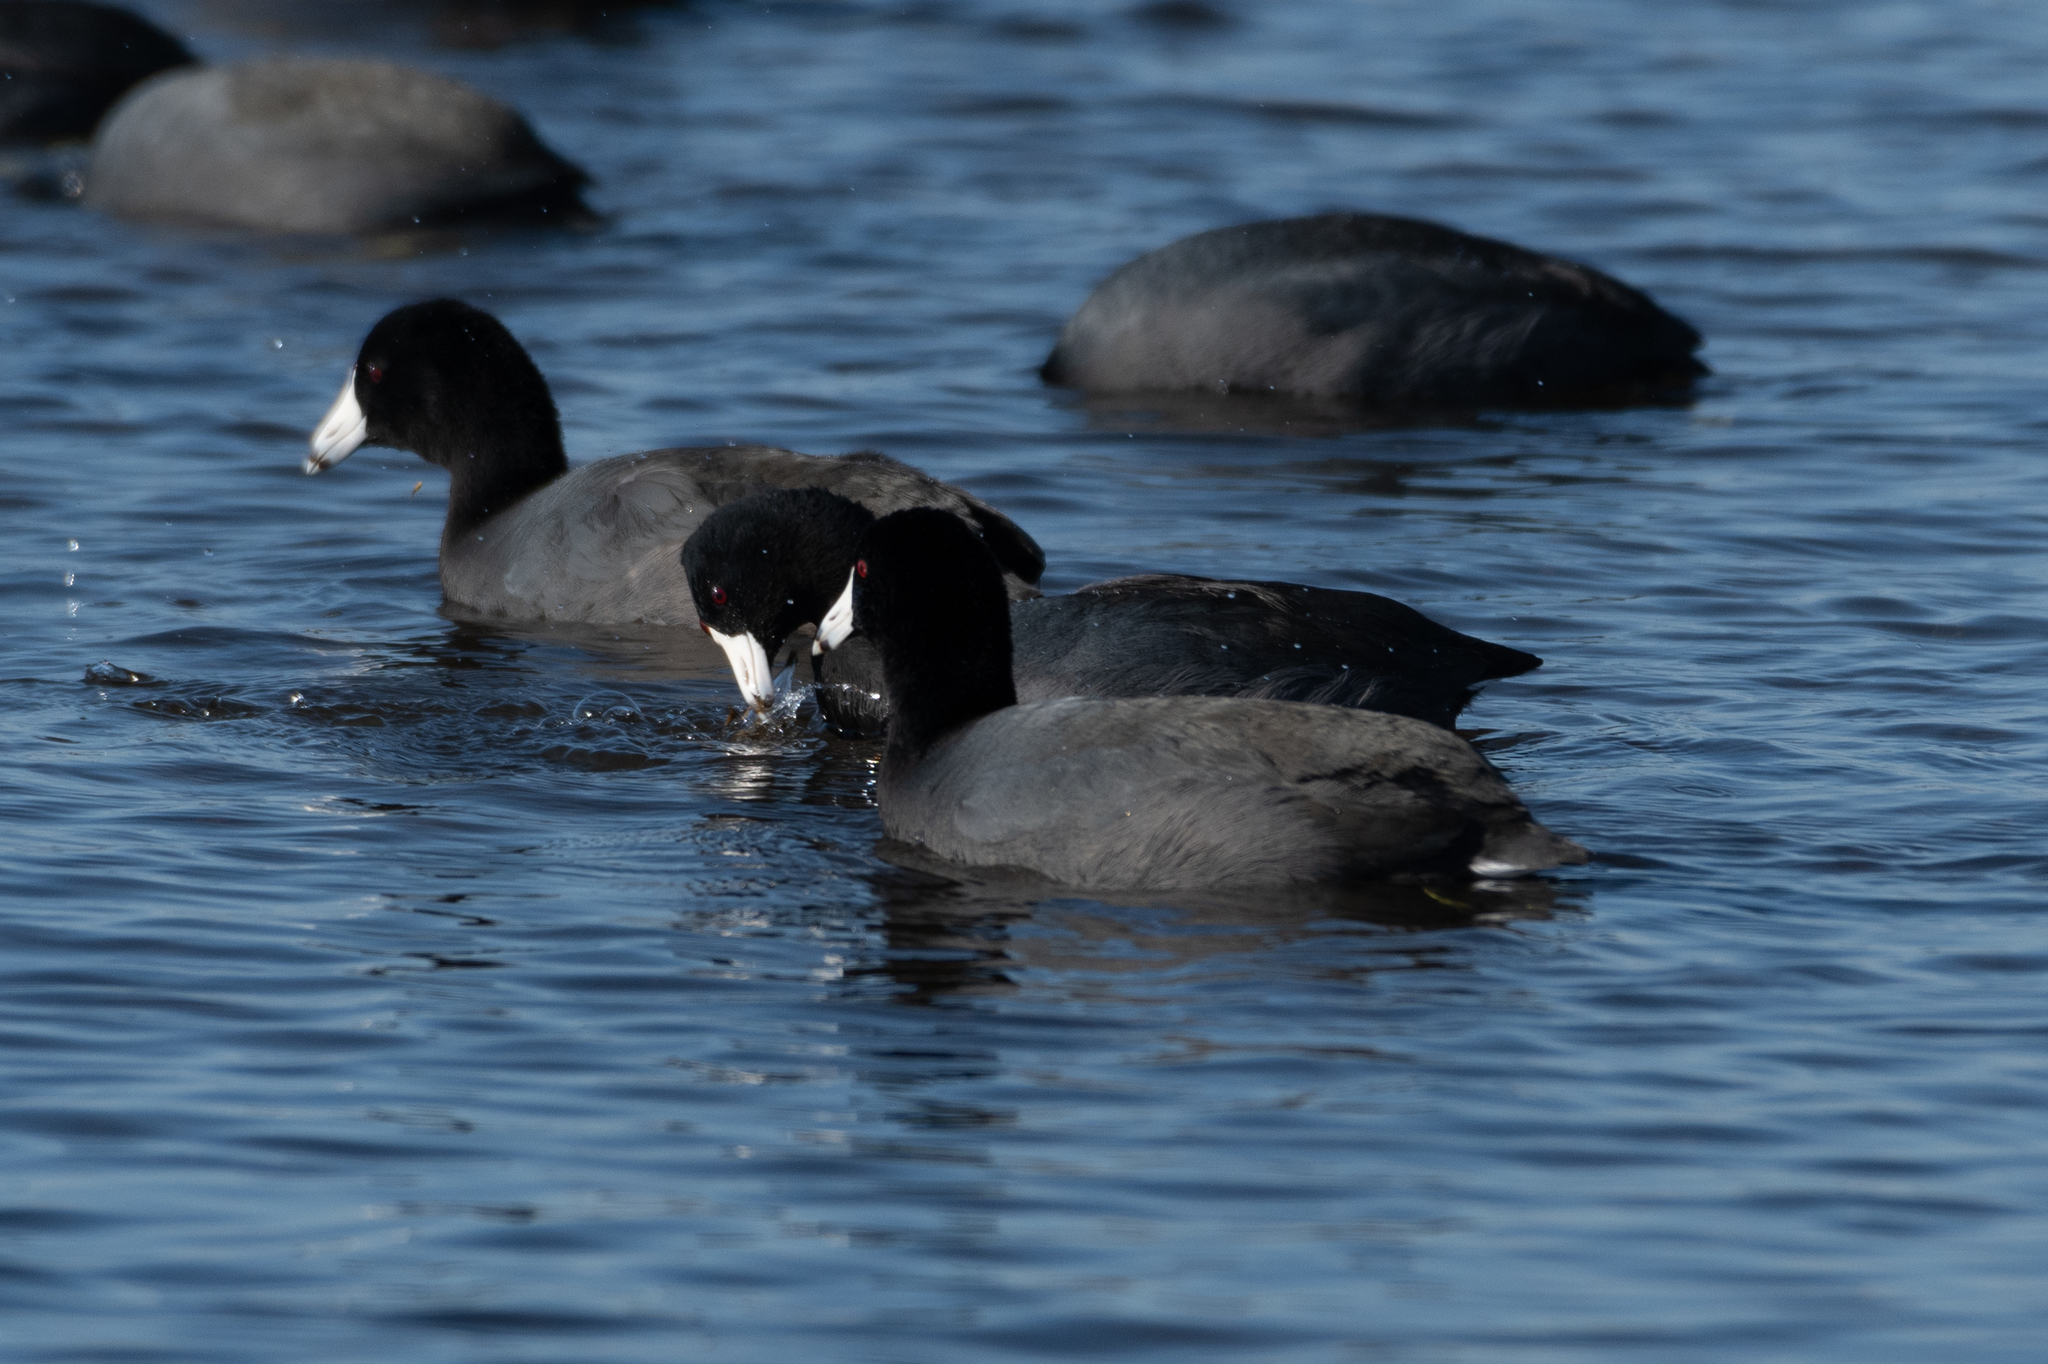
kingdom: Animalia
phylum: Chordata
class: Aves
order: Gruiformes
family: Rallidae
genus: Fulica
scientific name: Fulica americana
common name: American coot
